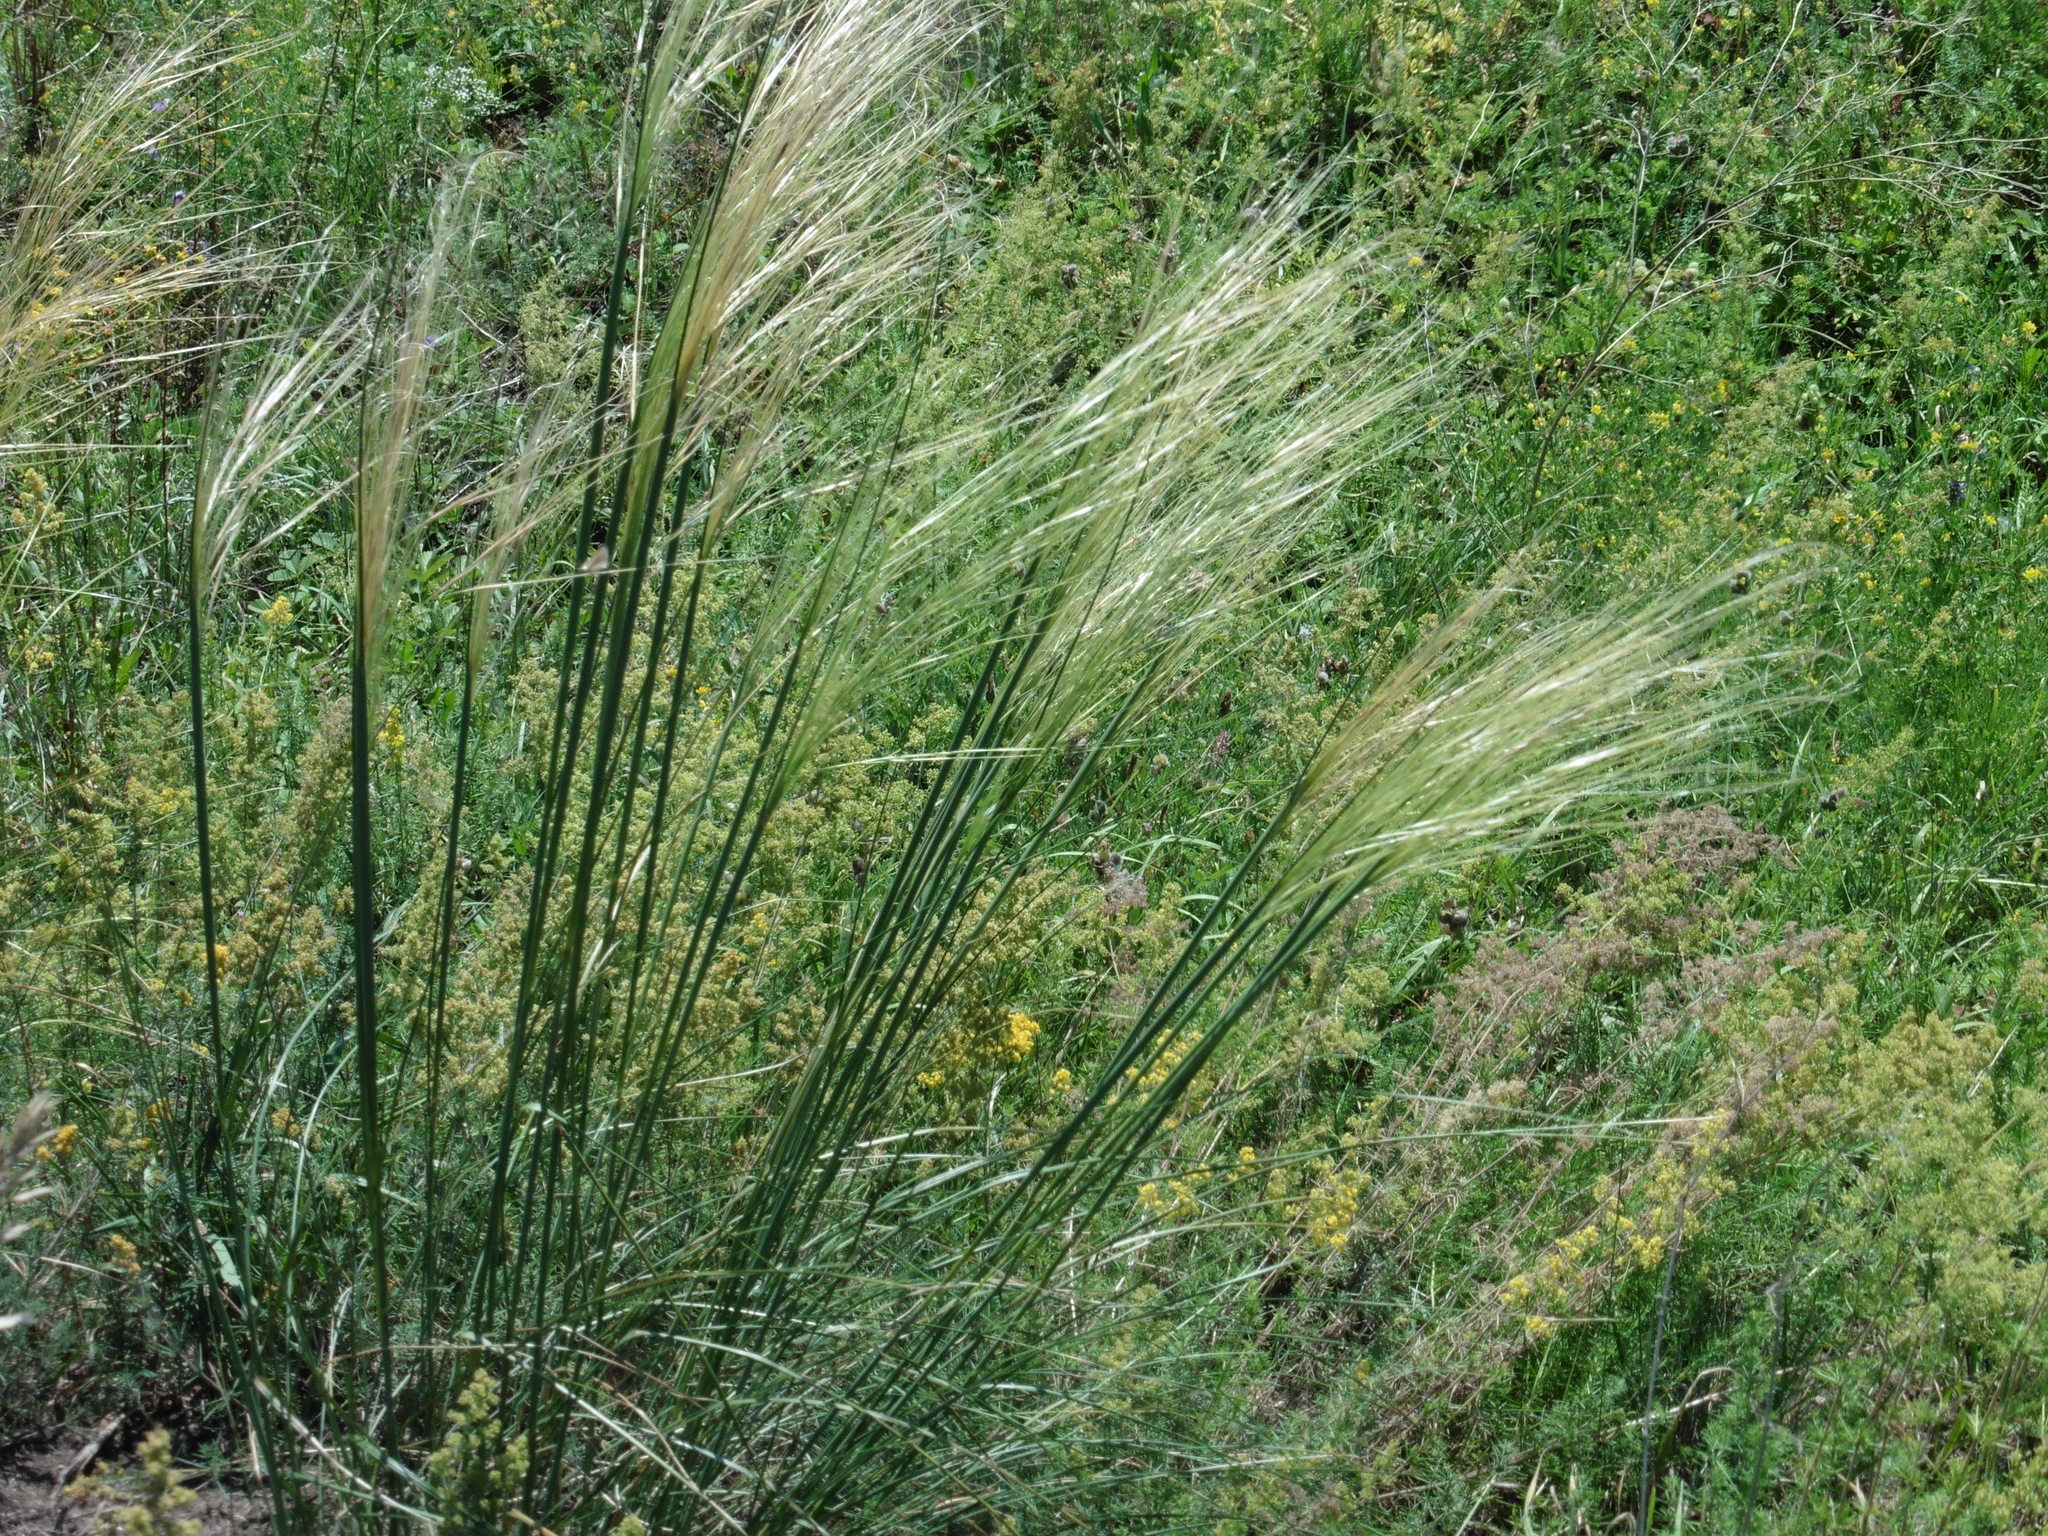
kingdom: Plantae
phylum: Tracheophyta
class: Liliopsida
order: Poales
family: Poaceae
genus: Stipa
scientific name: Stipa capillata
